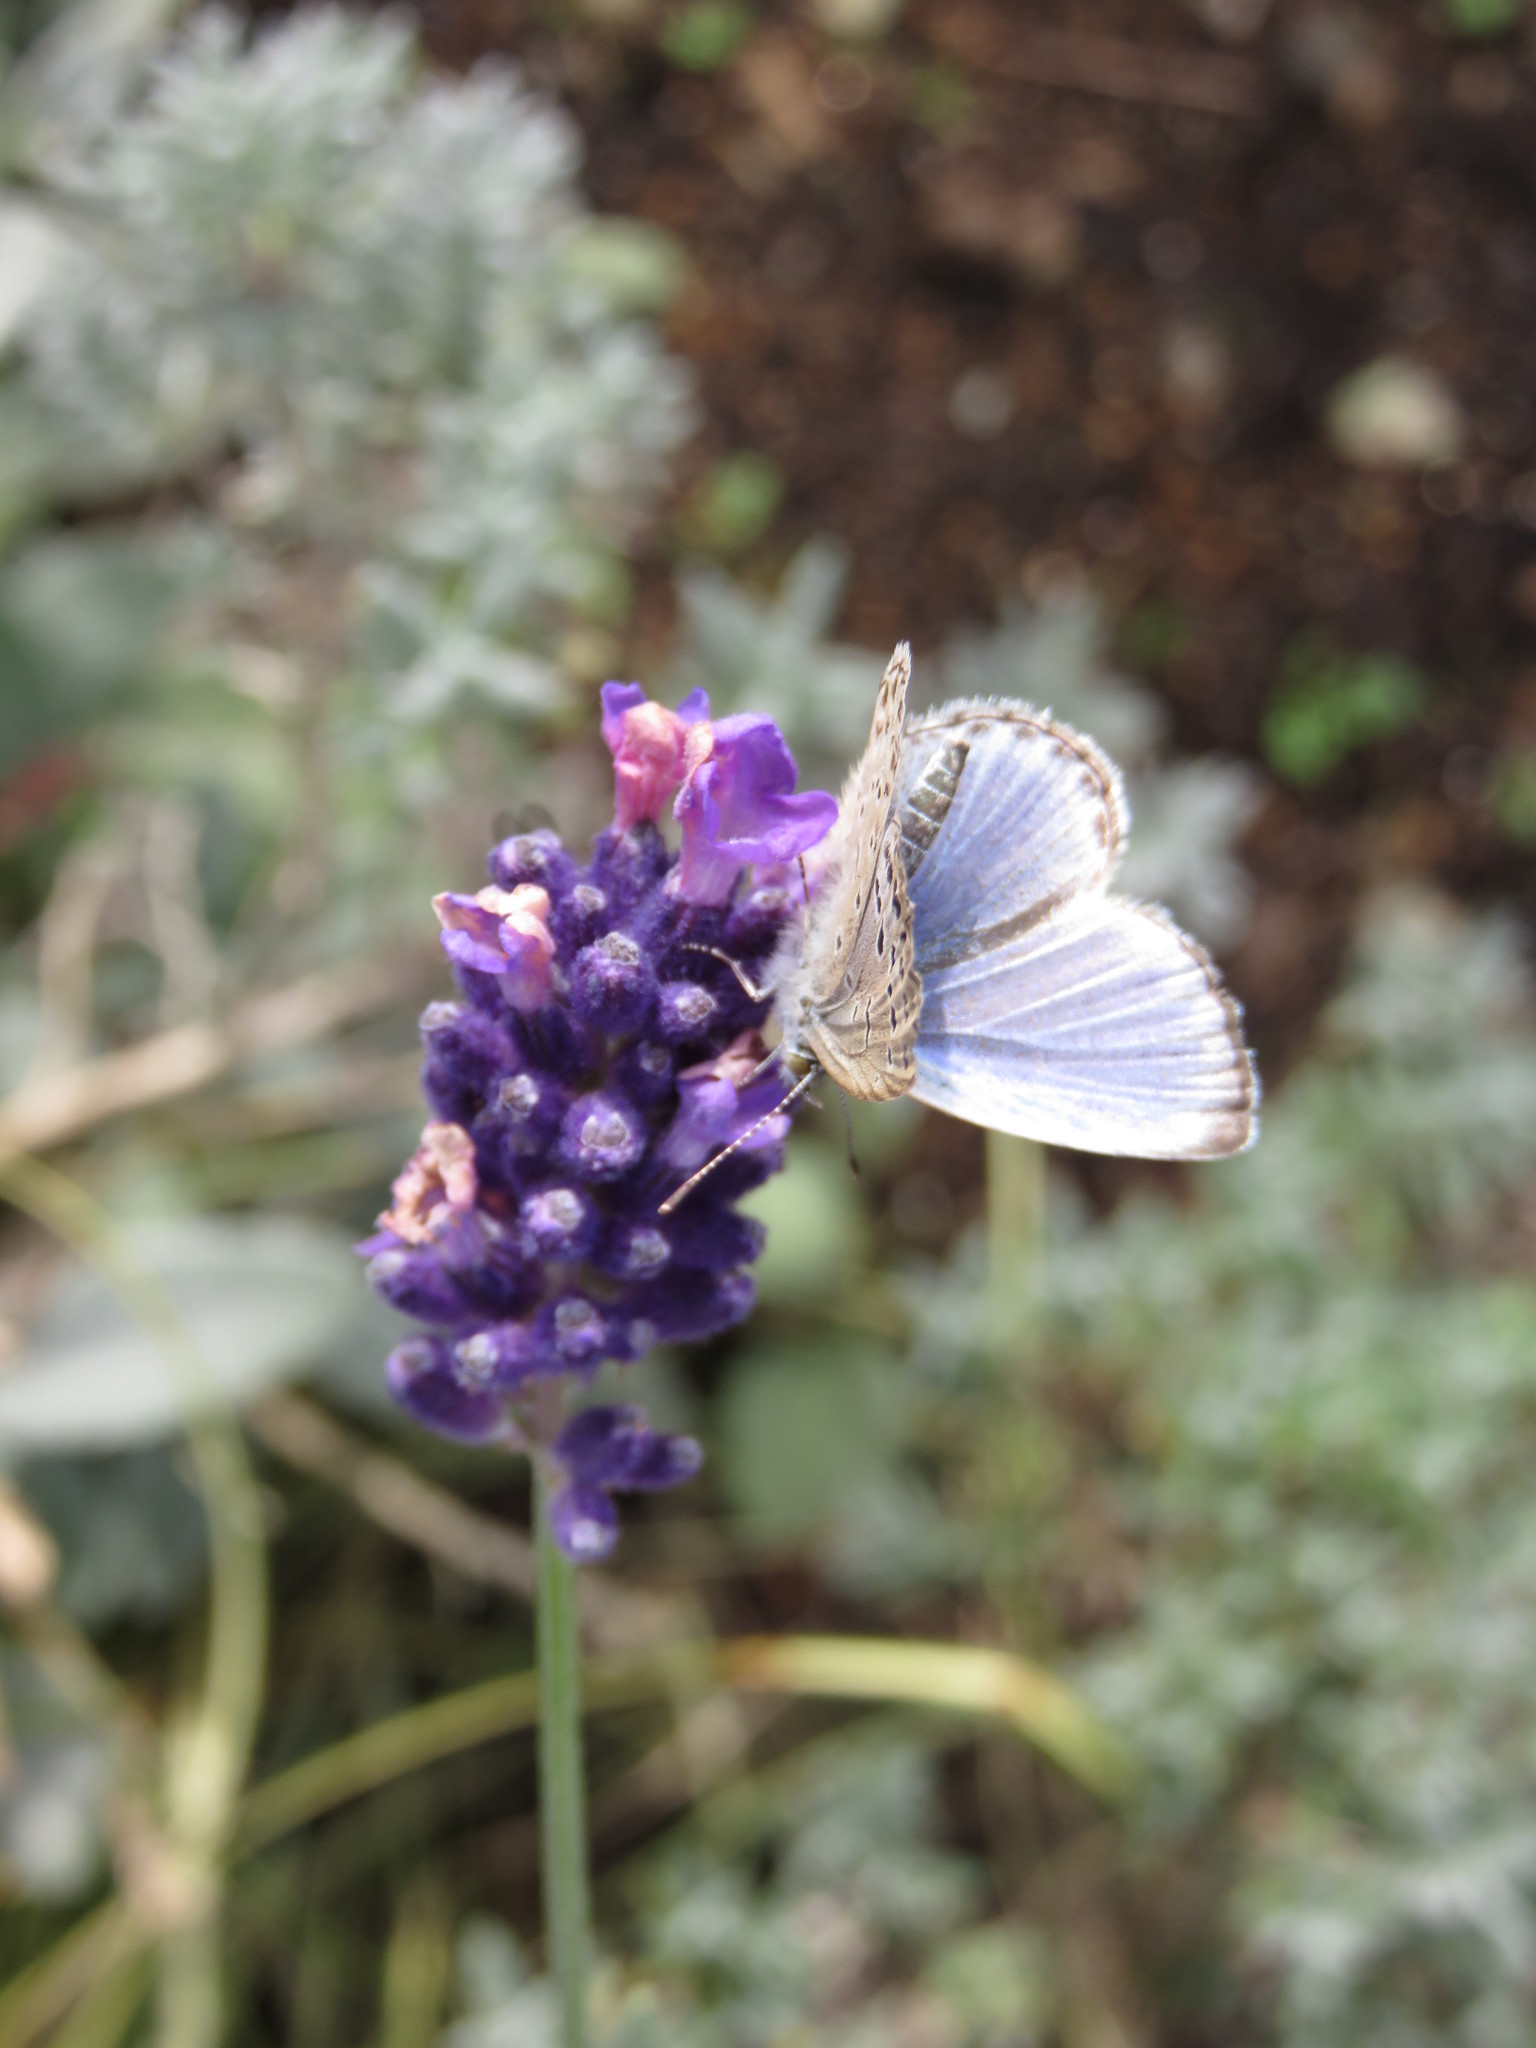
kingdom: Animalia
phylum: Arthropoda
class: Insecta
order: Lepidoptera
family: Lycaenidae
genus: Pseudozizeeria
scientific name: Pseudozizeeria maha
